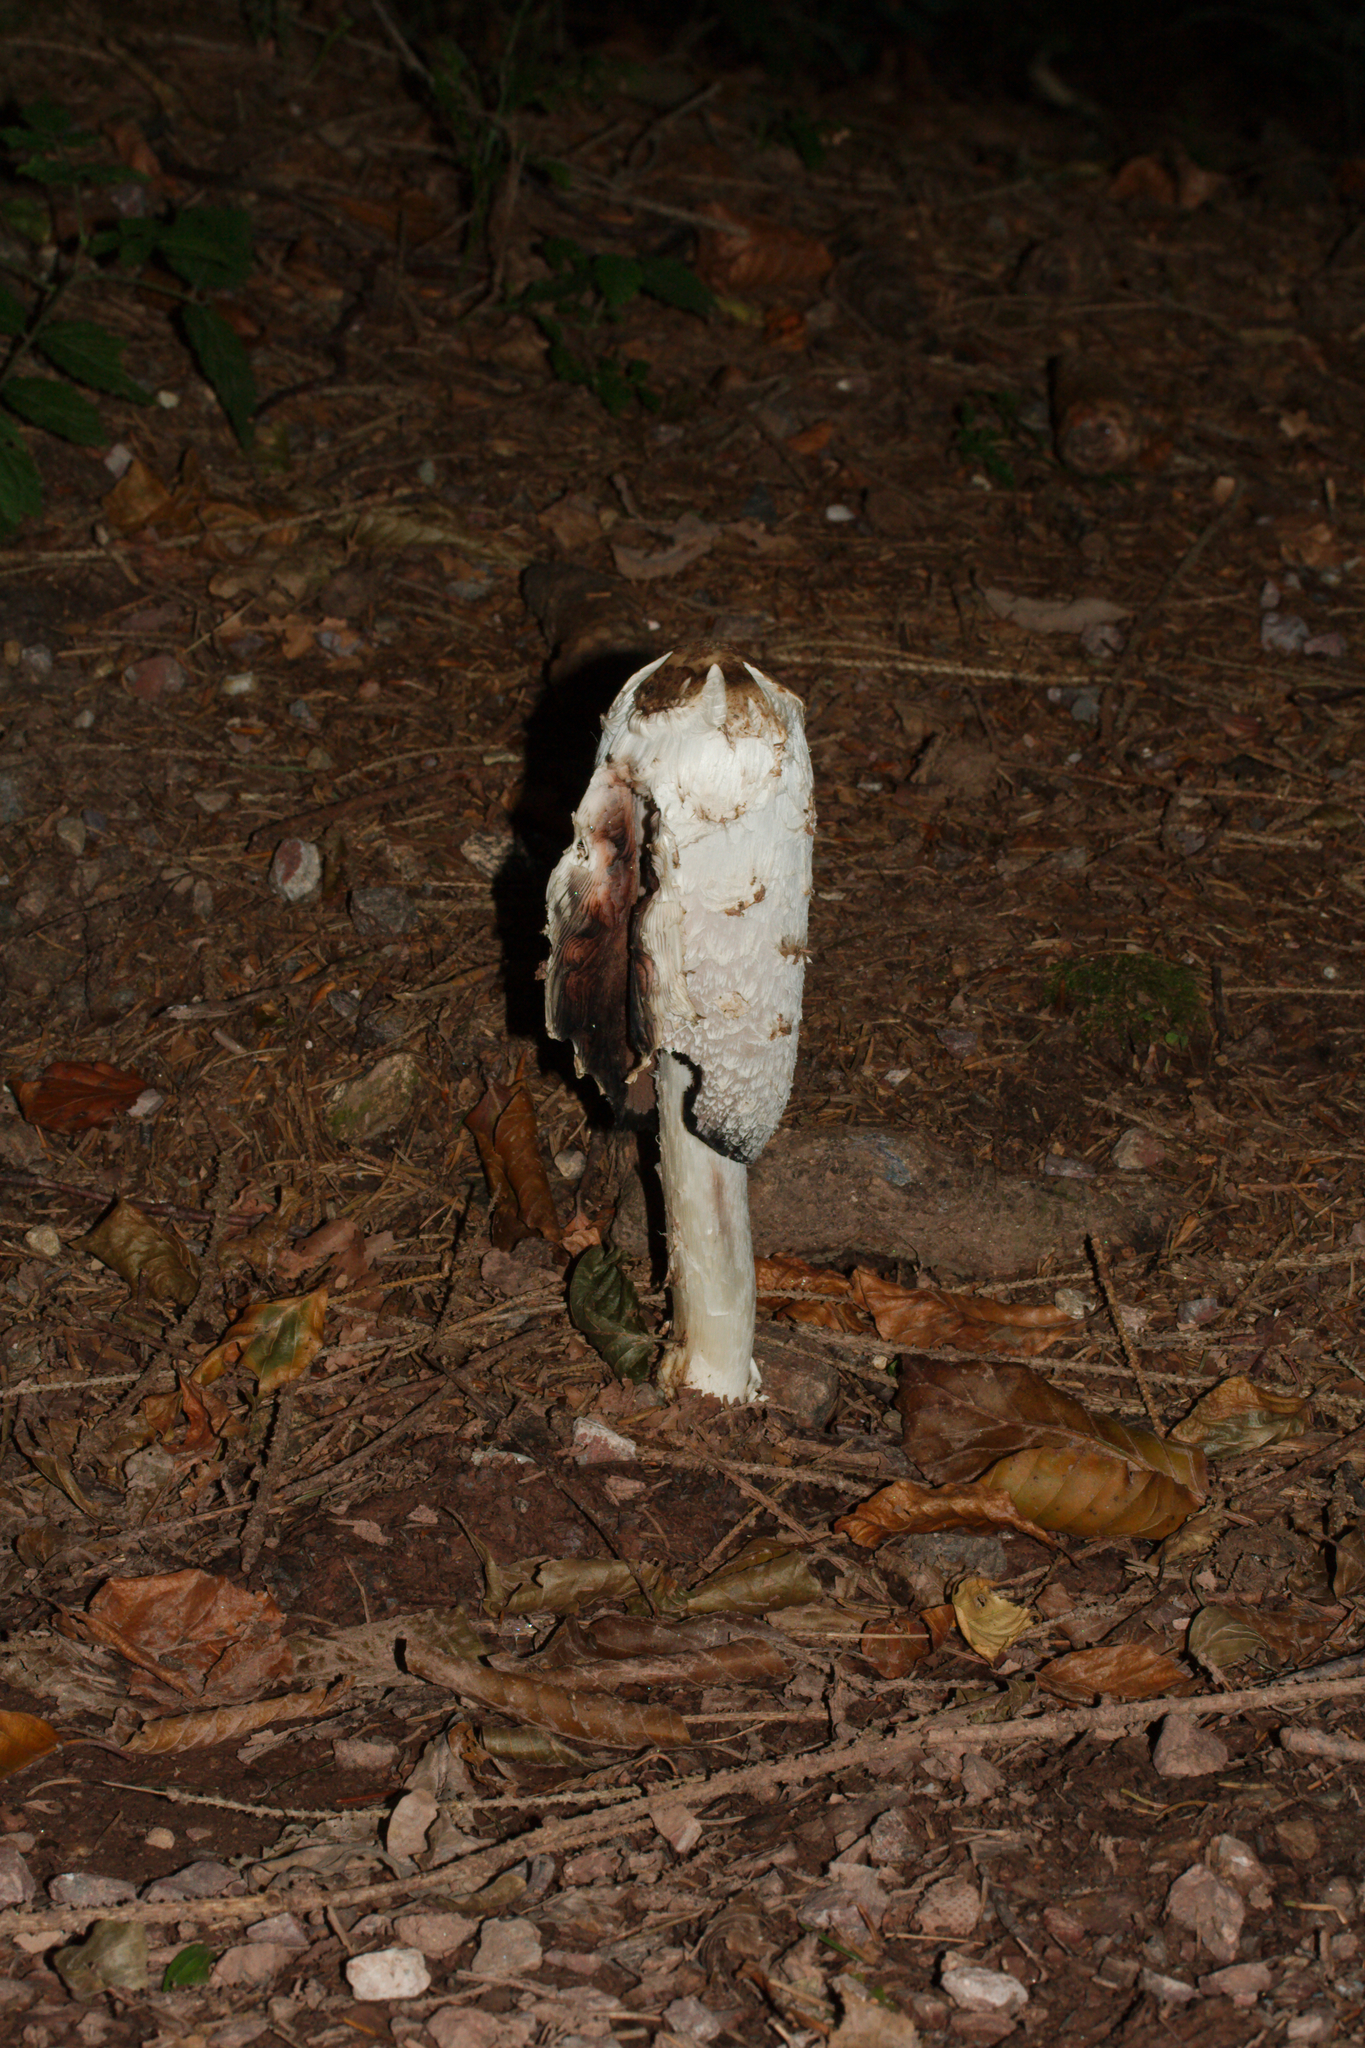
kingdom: Fungi
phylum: Basidiomycota
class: Agaricomycetes
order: Agaricales
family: Agaricaceae
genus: Coprinus
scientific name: Coprinus comatus
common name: Lawyer's wig
